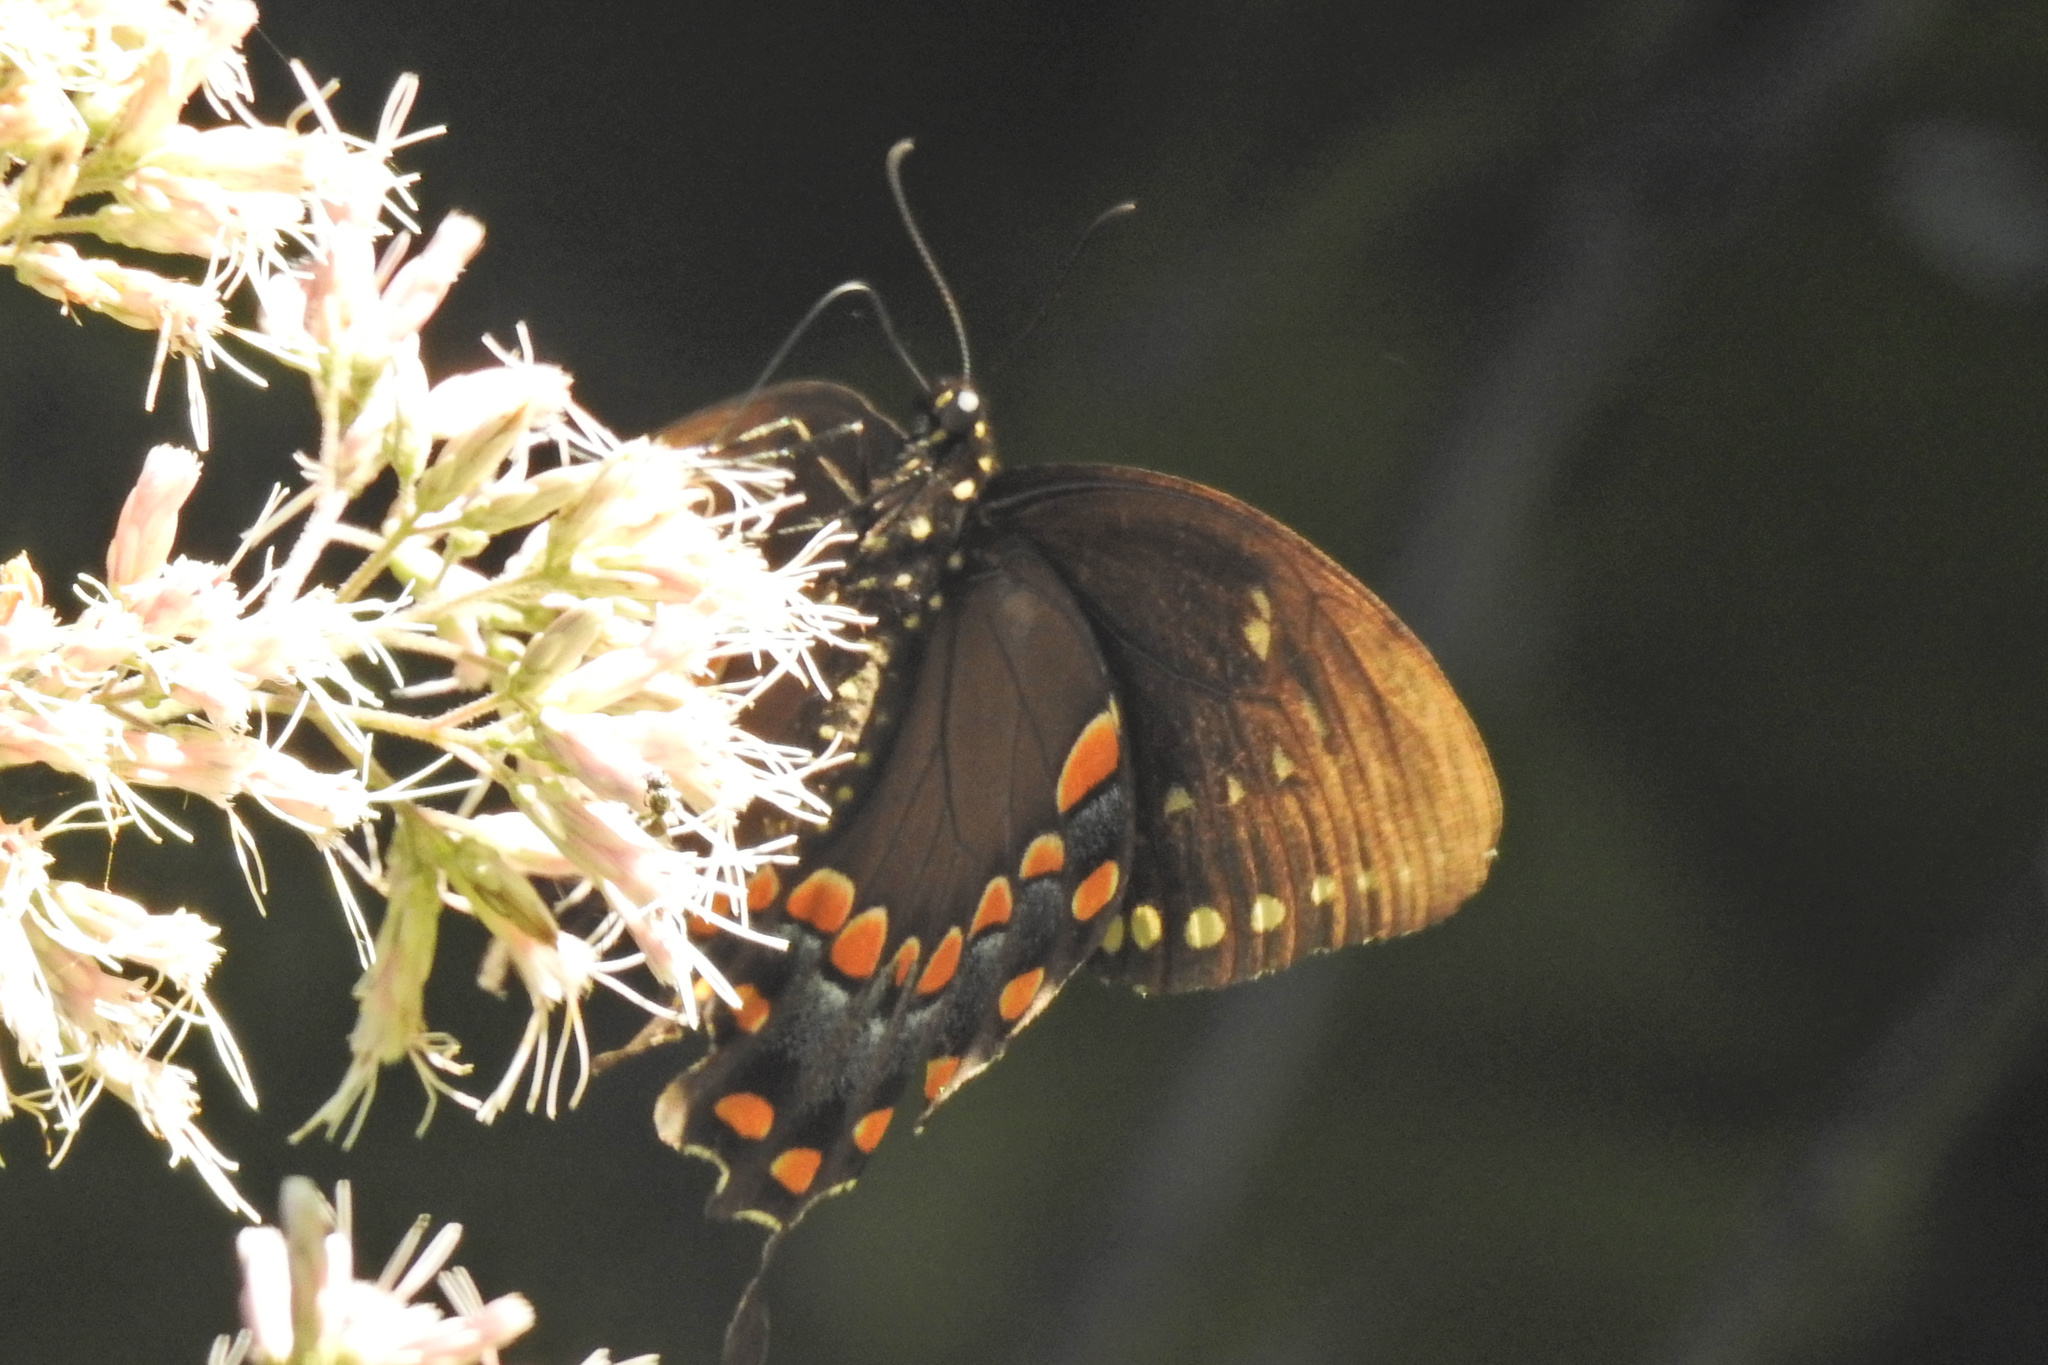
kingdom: Animalia
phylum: Arthropoda
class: Insecta
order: Lepidoptera
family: Papilionidae
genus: Papilio
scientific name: Papilio troilus
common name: Spicebush swallowtail
